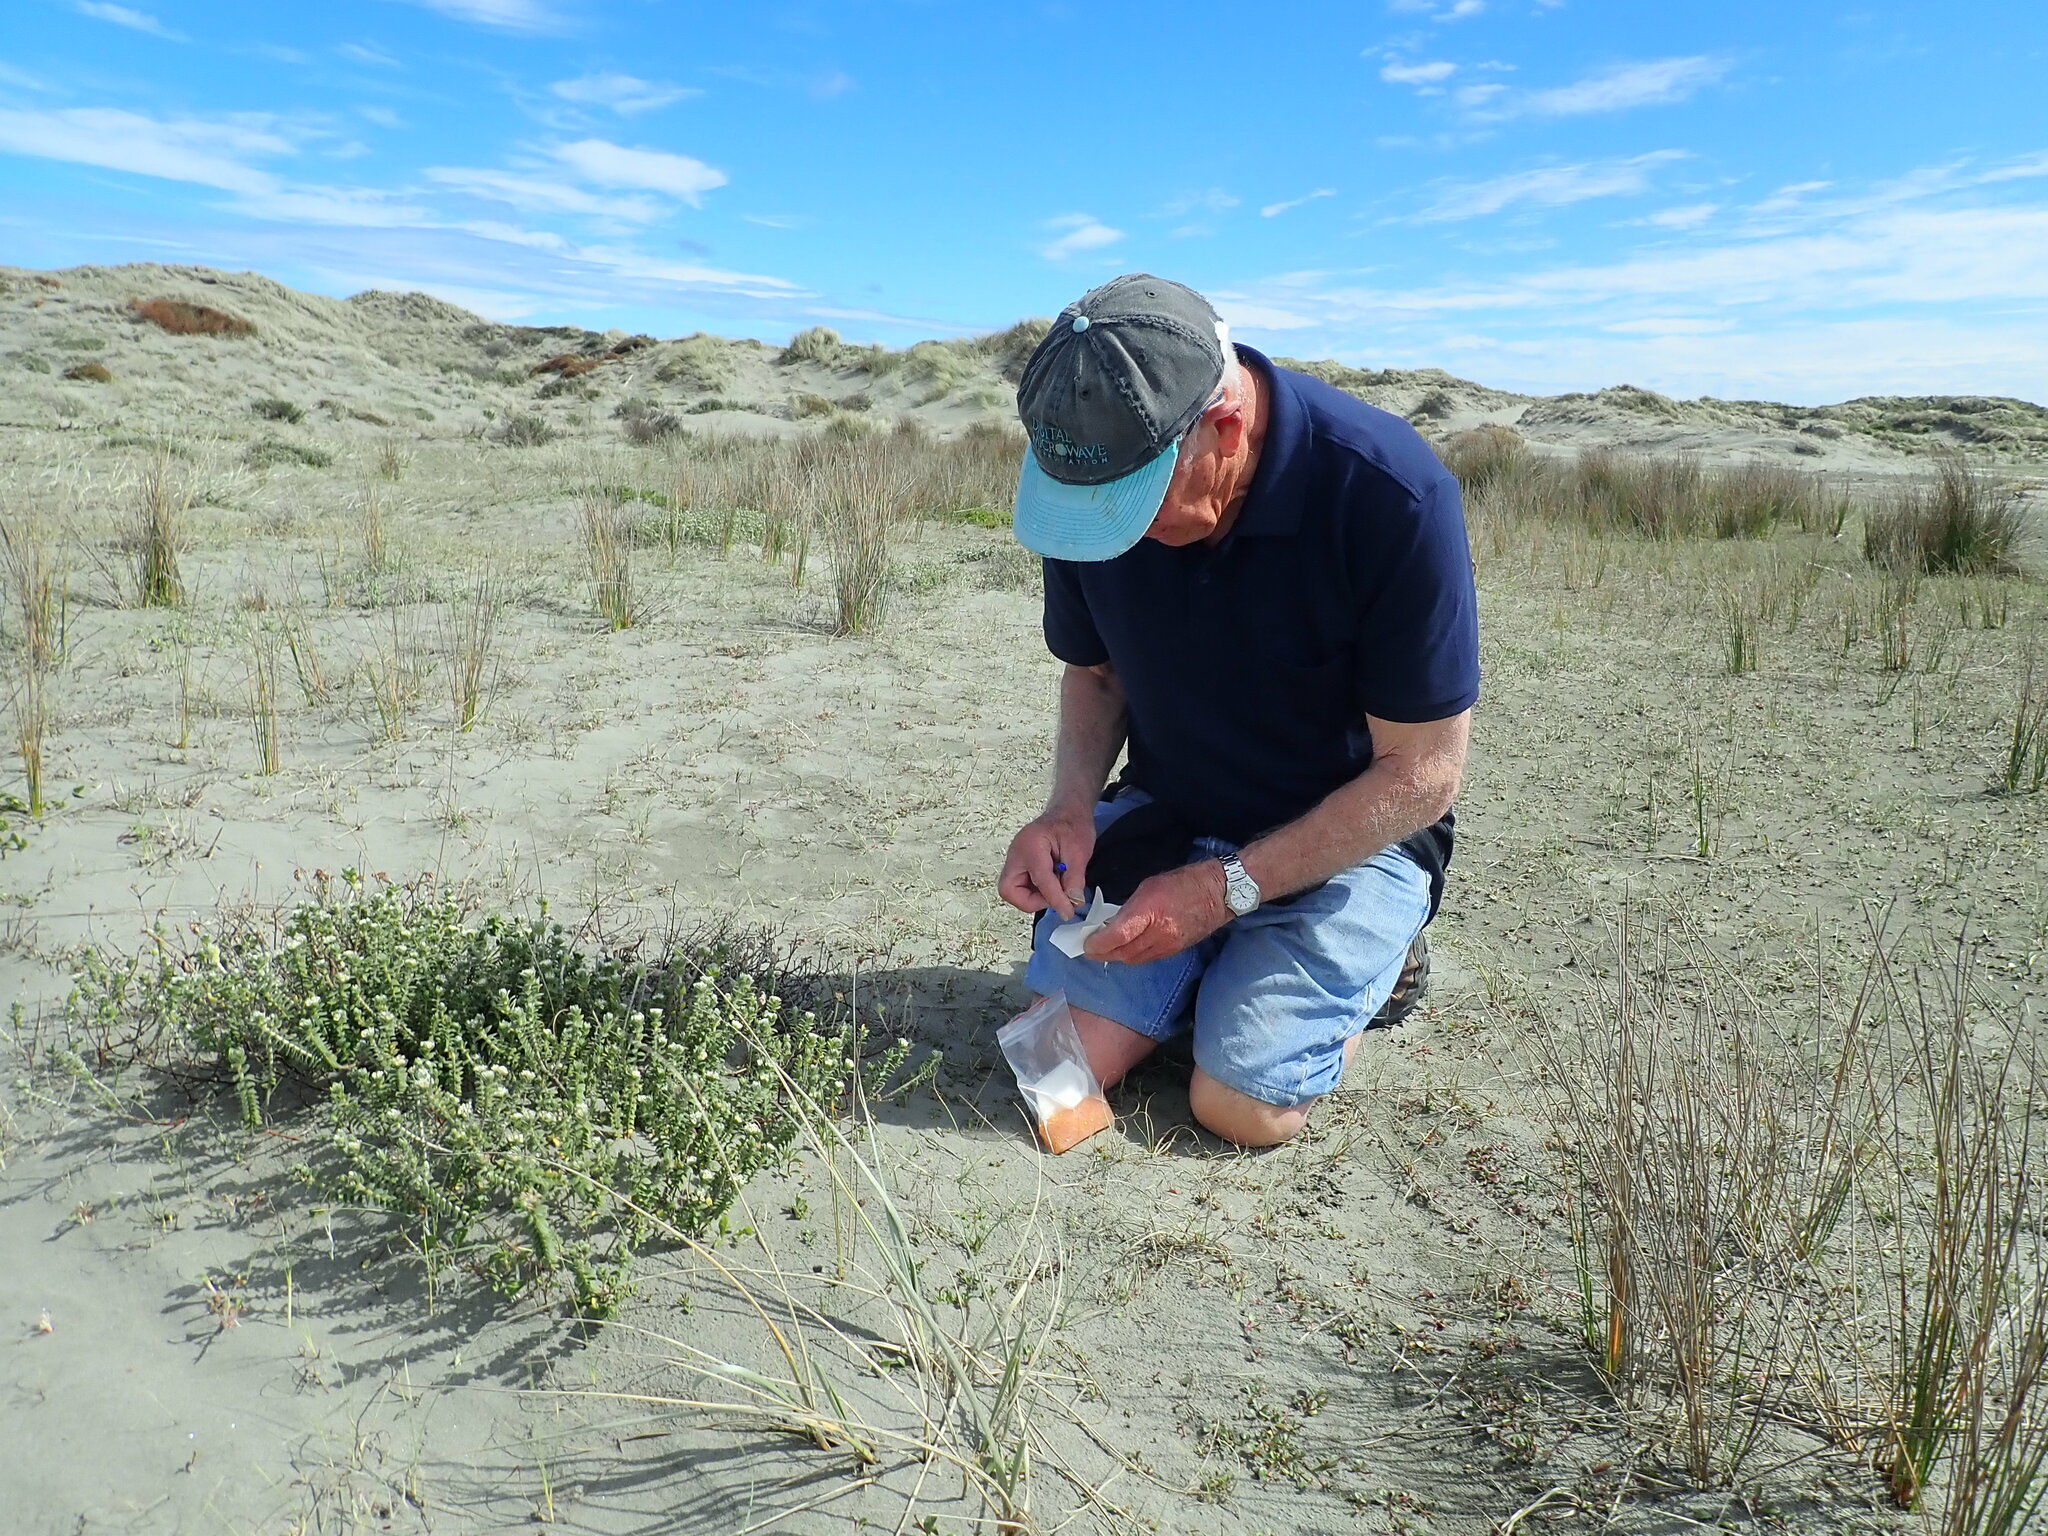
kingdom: Plantae
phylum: Tracheophyta
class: Magnoliopsida
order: Malvales
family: Thymelaeaceae
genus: Pimelea
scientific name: Pimelea villosa
